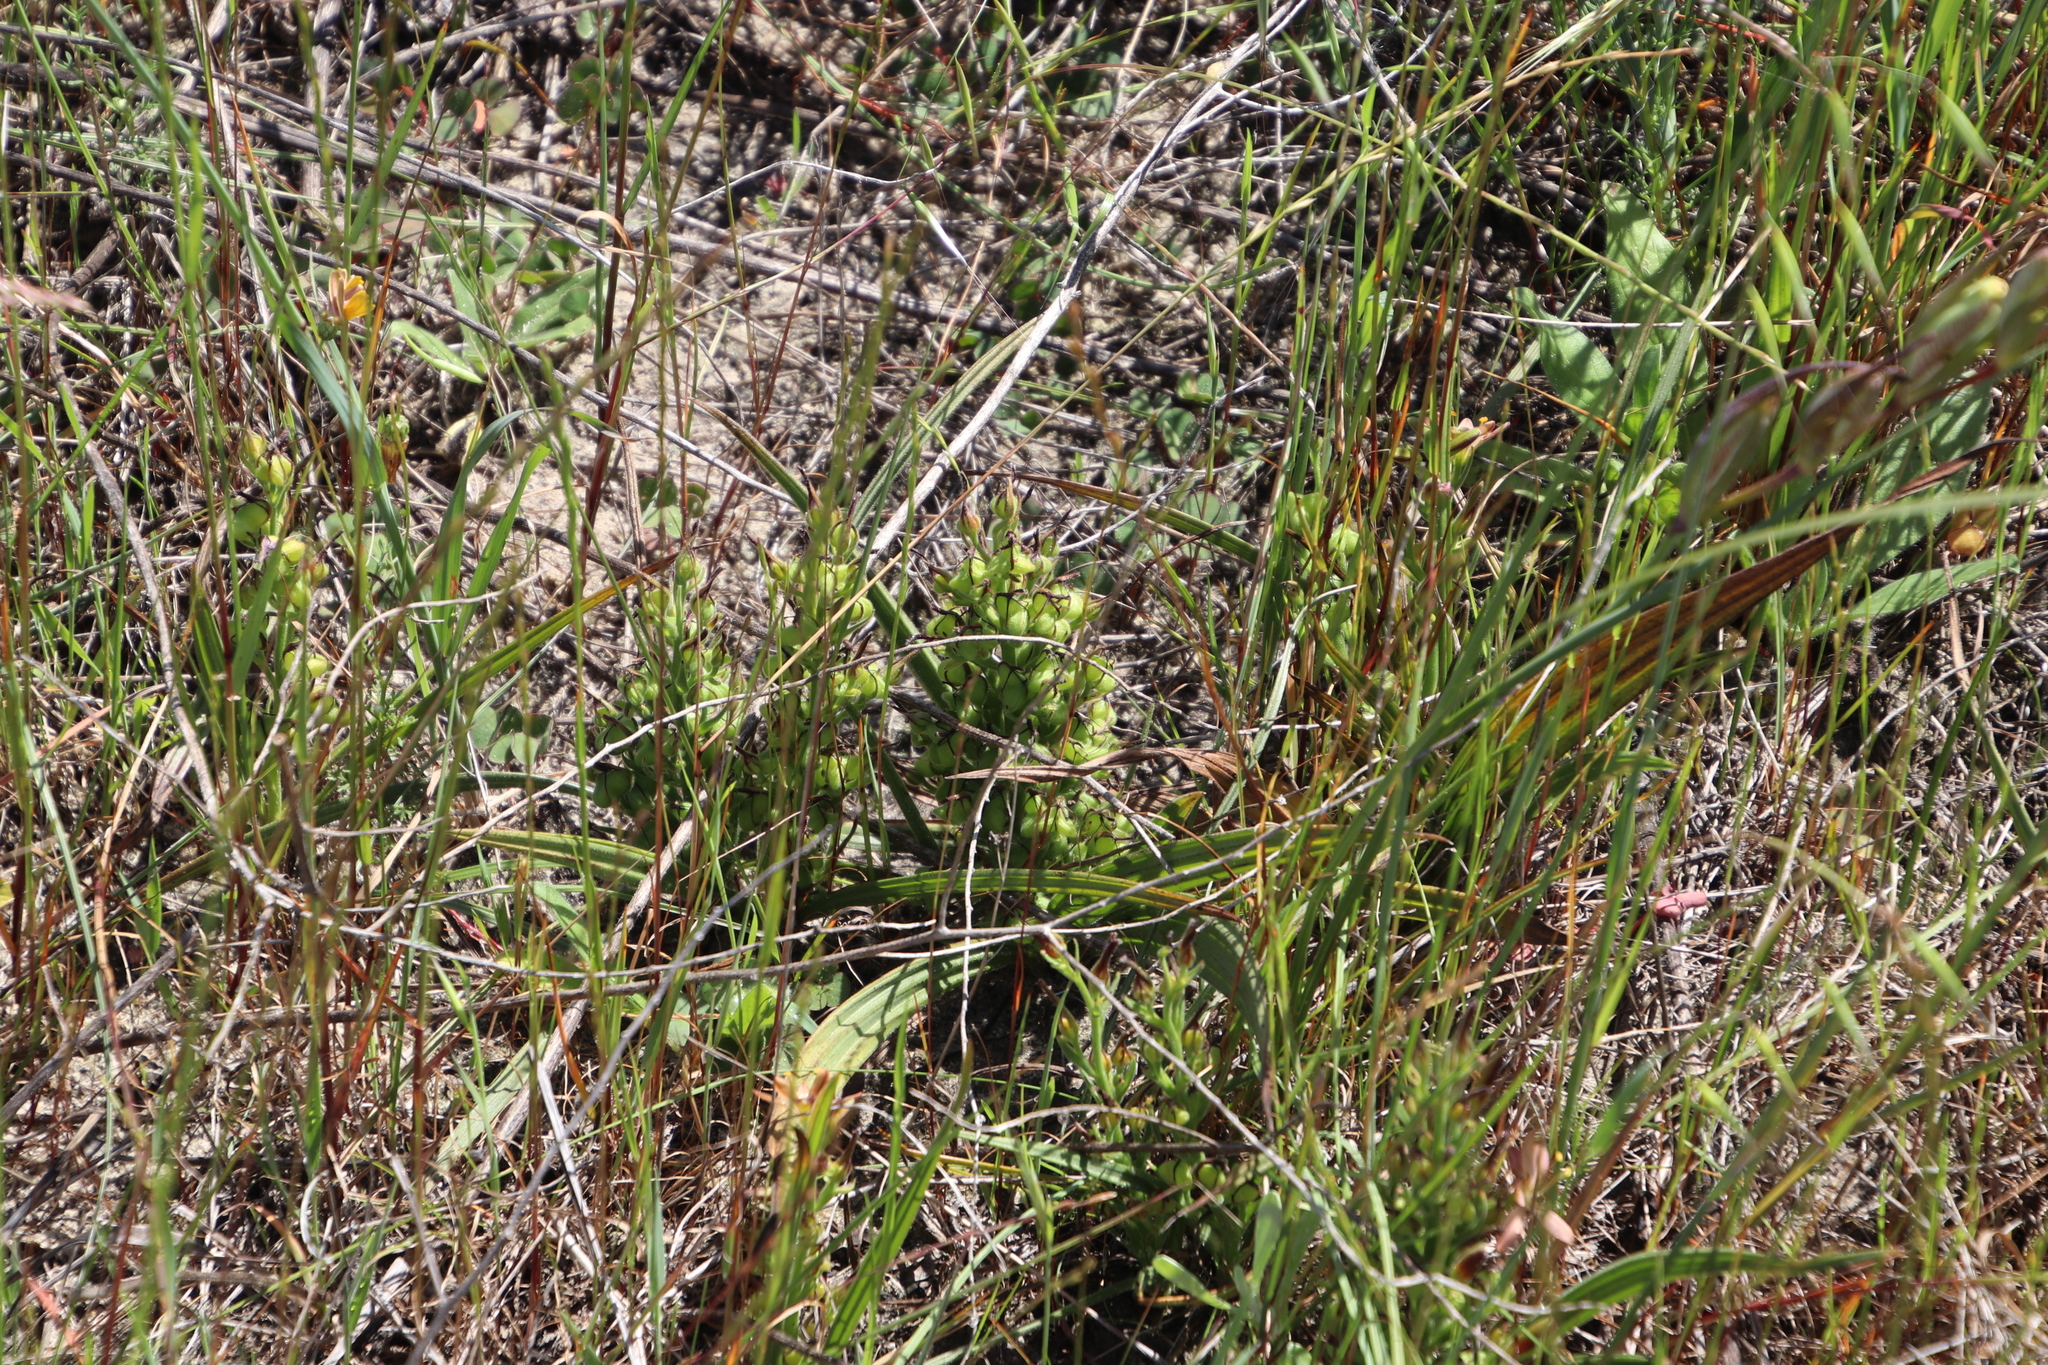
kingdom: Plantae
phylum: Tracheophyta
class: Liliopsida
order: Commelinales
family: Haemodoraceae
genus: Wachendorfia
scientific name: Wachendorfia multiflora
